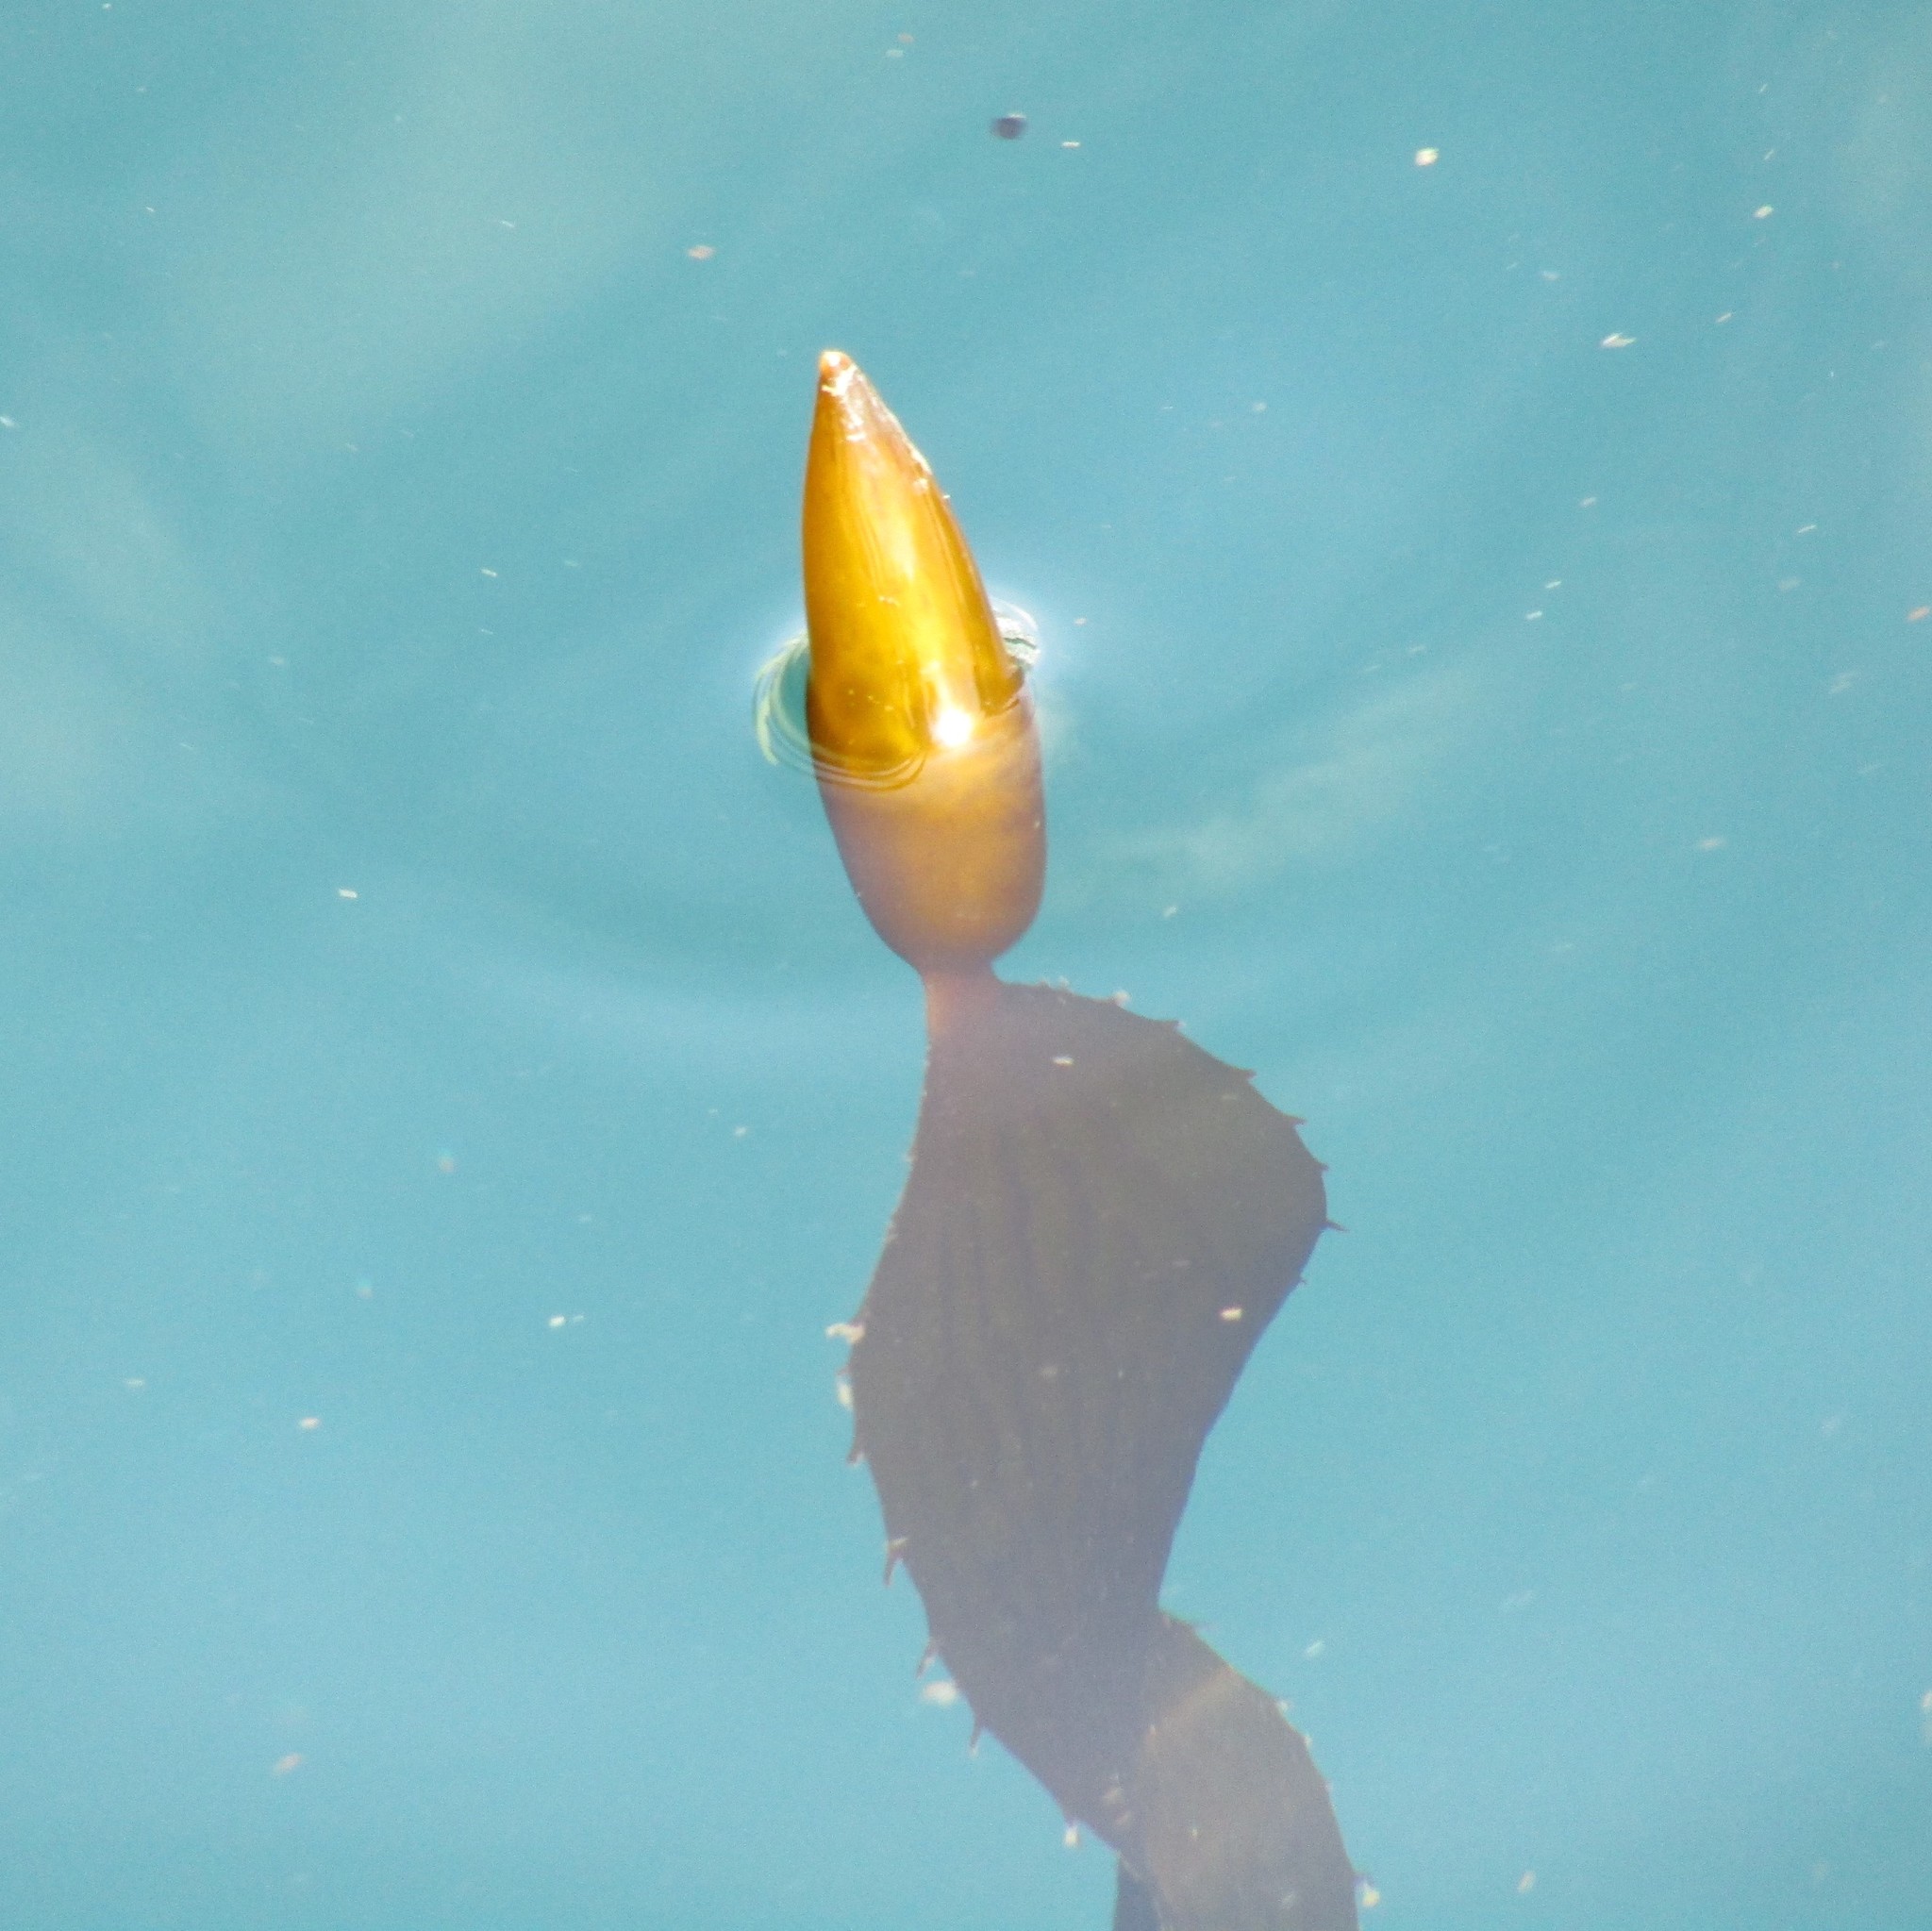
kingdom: Chromista
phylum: Ochrophyta
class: Phaeophyceae
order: Laminariales
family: Laminariaceae
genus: Macrocystis
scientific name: Macrocystis pyrifera
